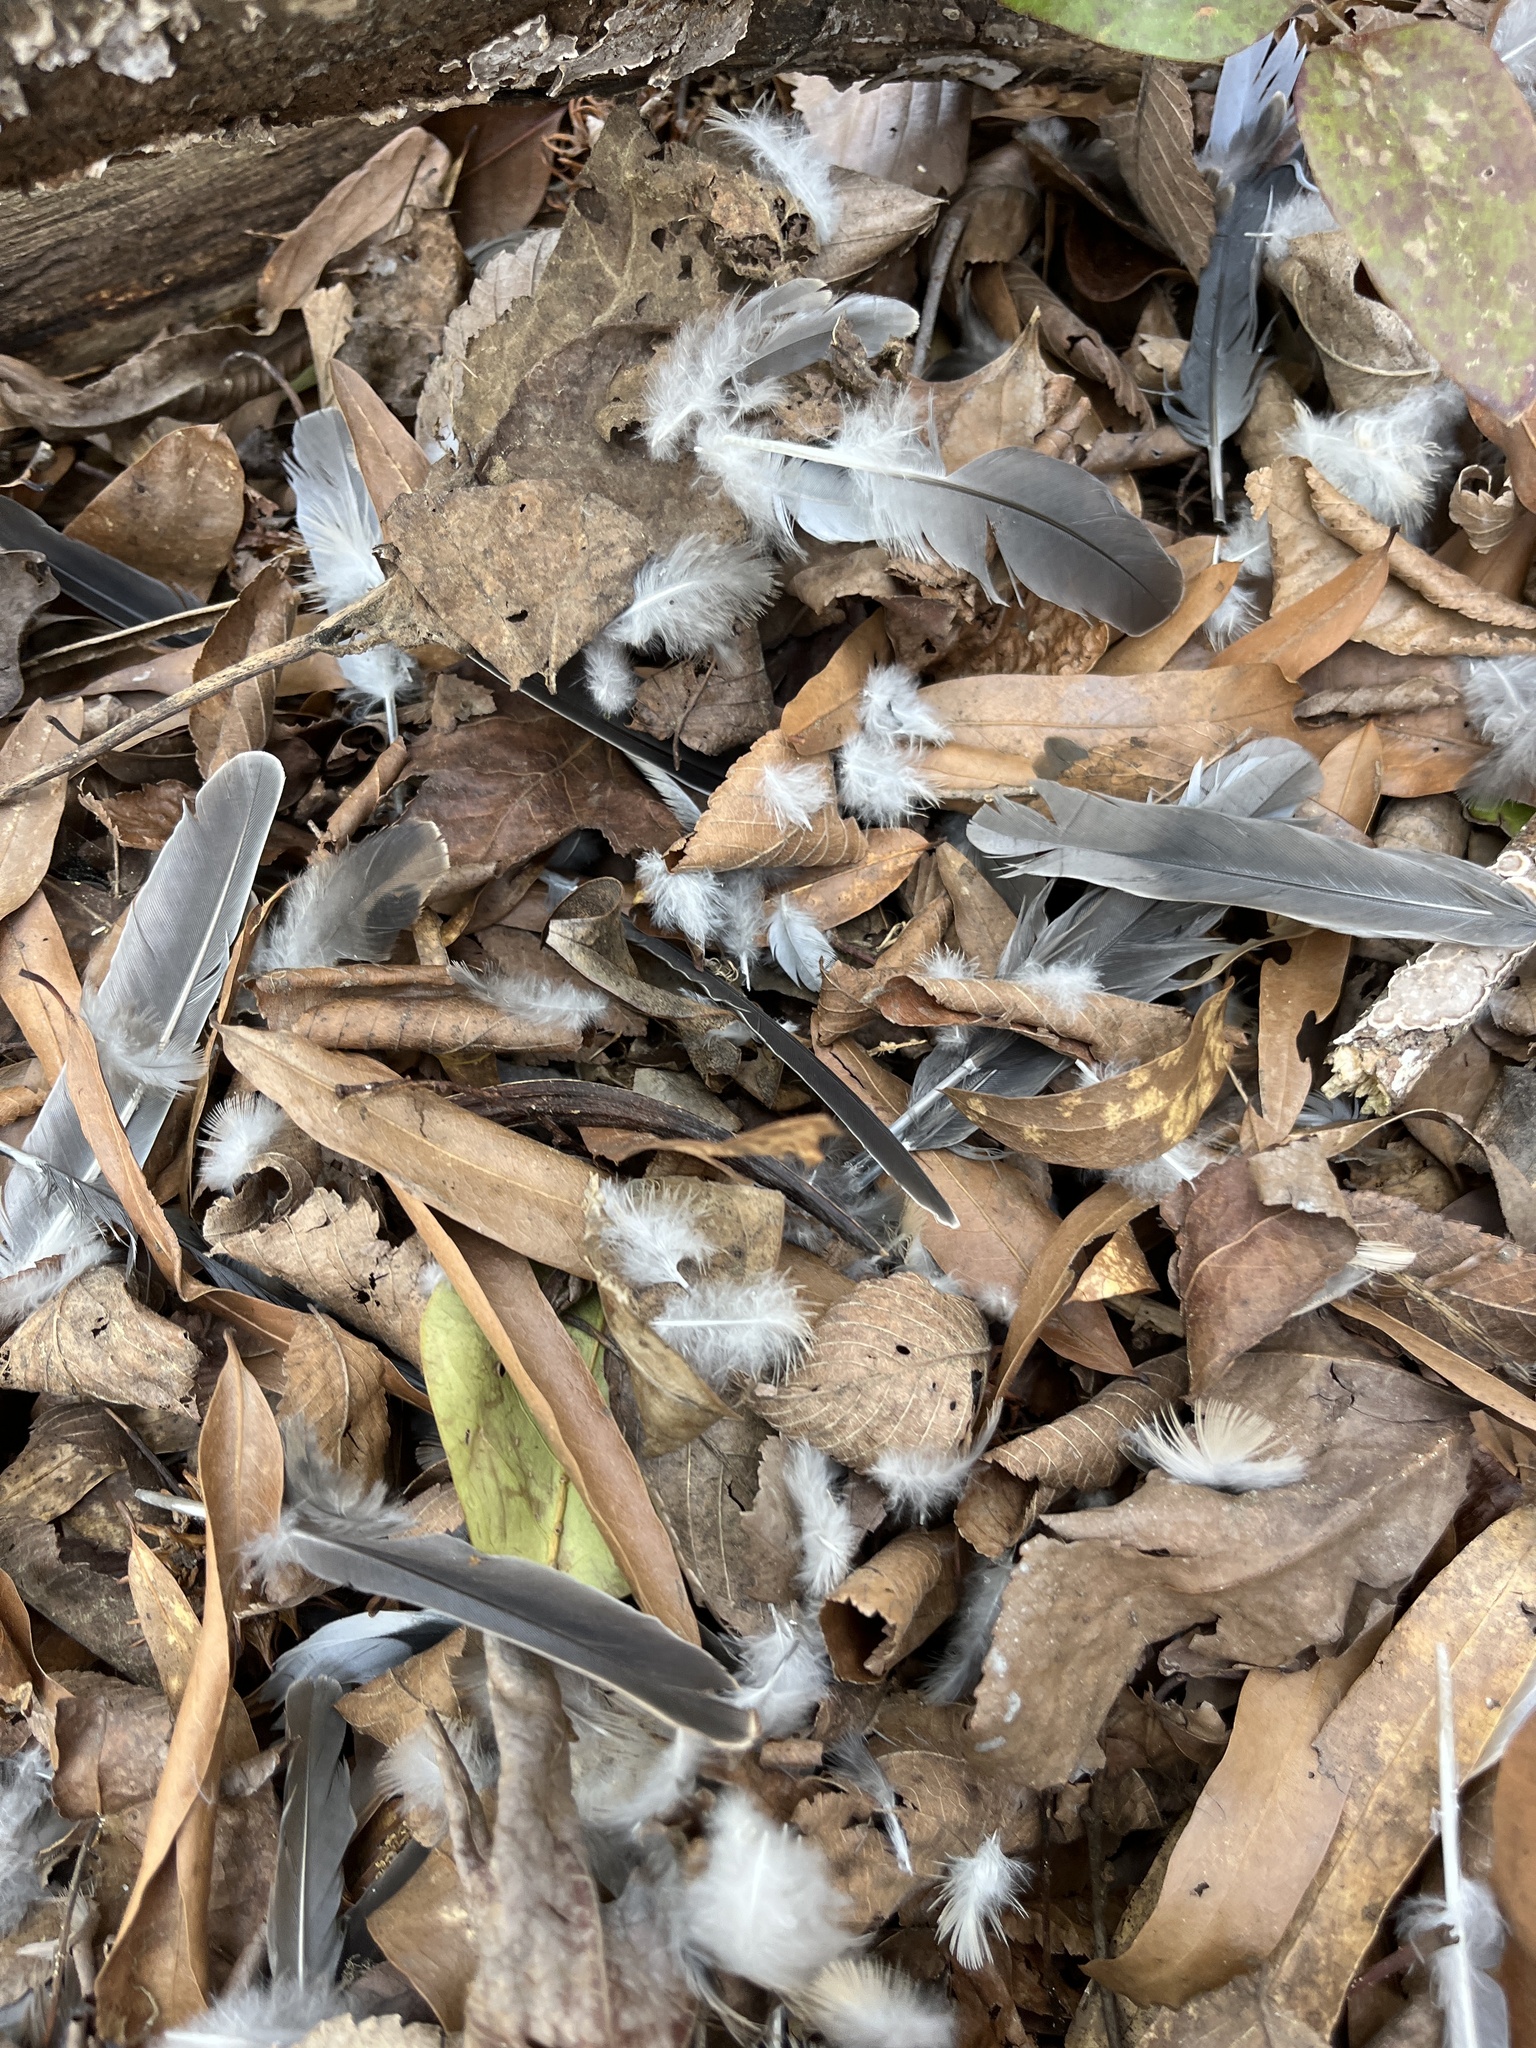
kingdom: Animalia
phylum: Chordata
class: Aves
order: Columbiformes
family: Columbidae
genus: Zenaida
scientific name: Zenaida macroura
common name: Mourning dove
